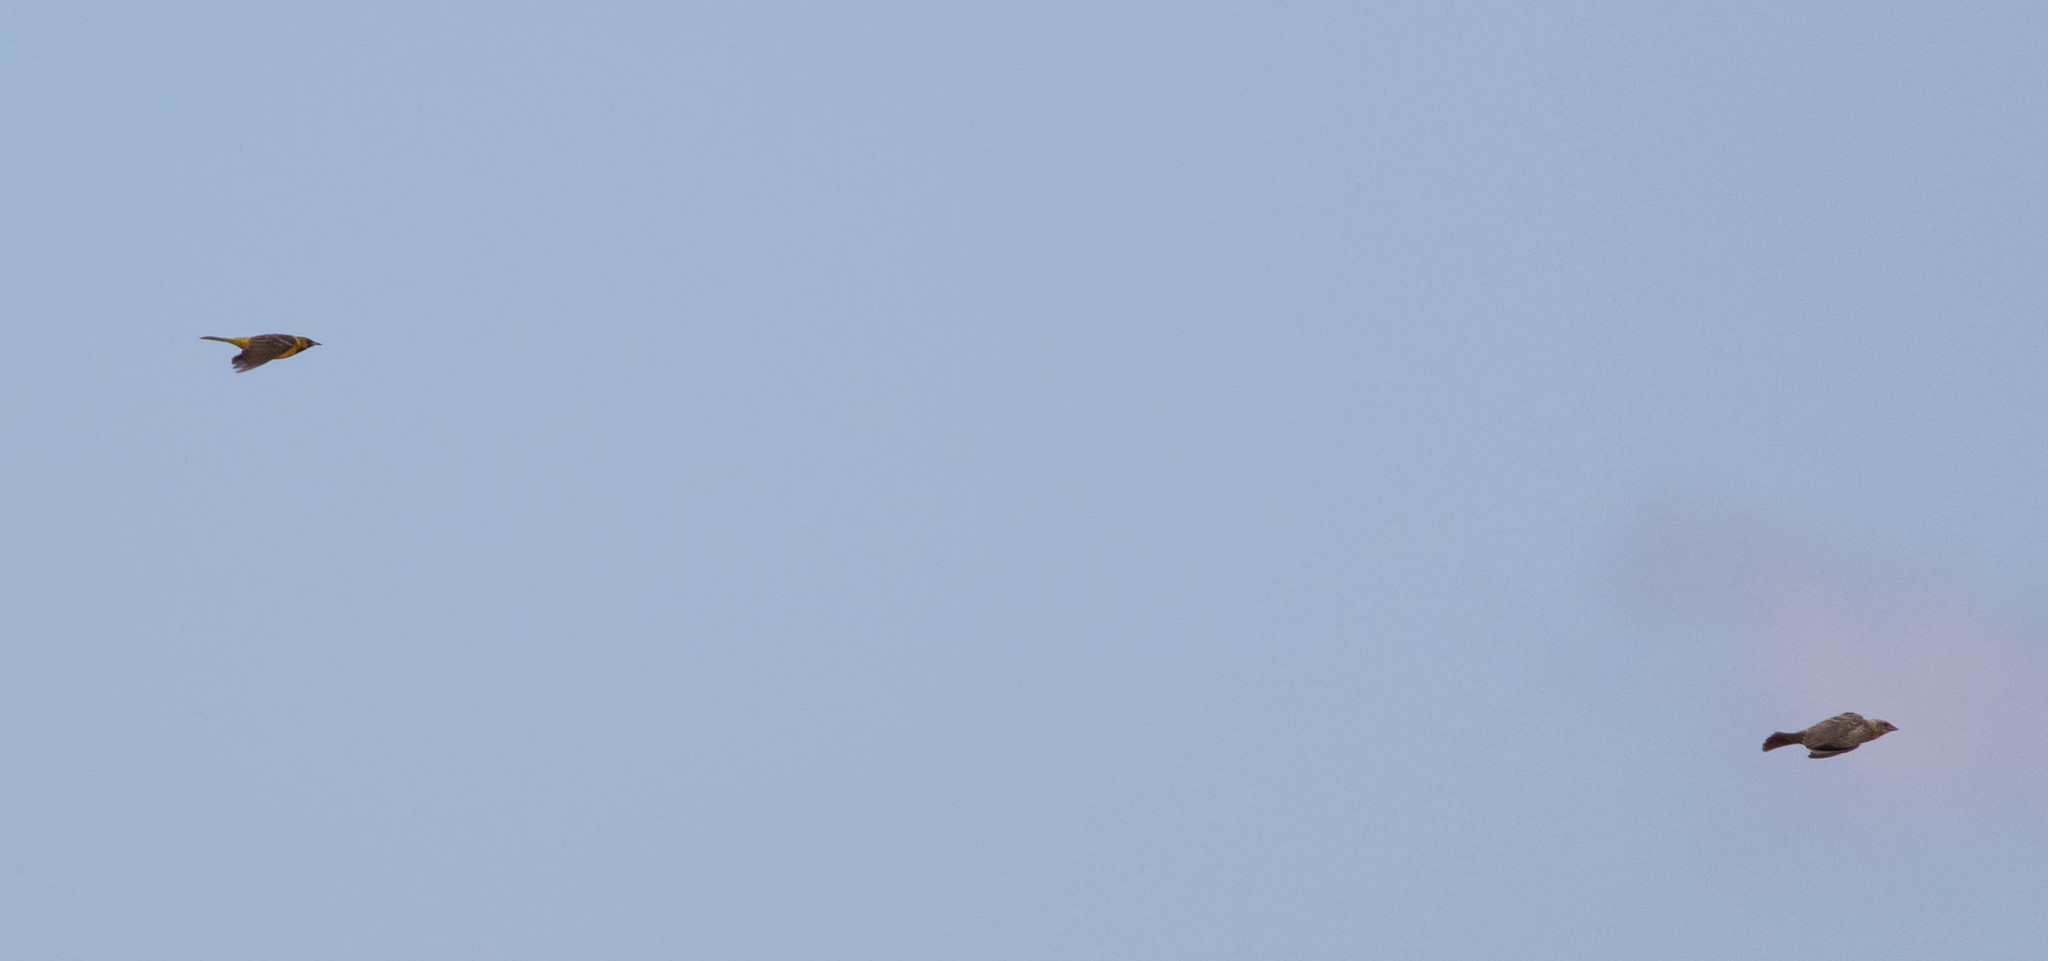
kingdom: Animalia
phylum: Chordata
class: Aves
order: Passeriformes
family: Icteridae
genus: Icterus
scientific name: Icterus spurius
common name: Orchard oriole
